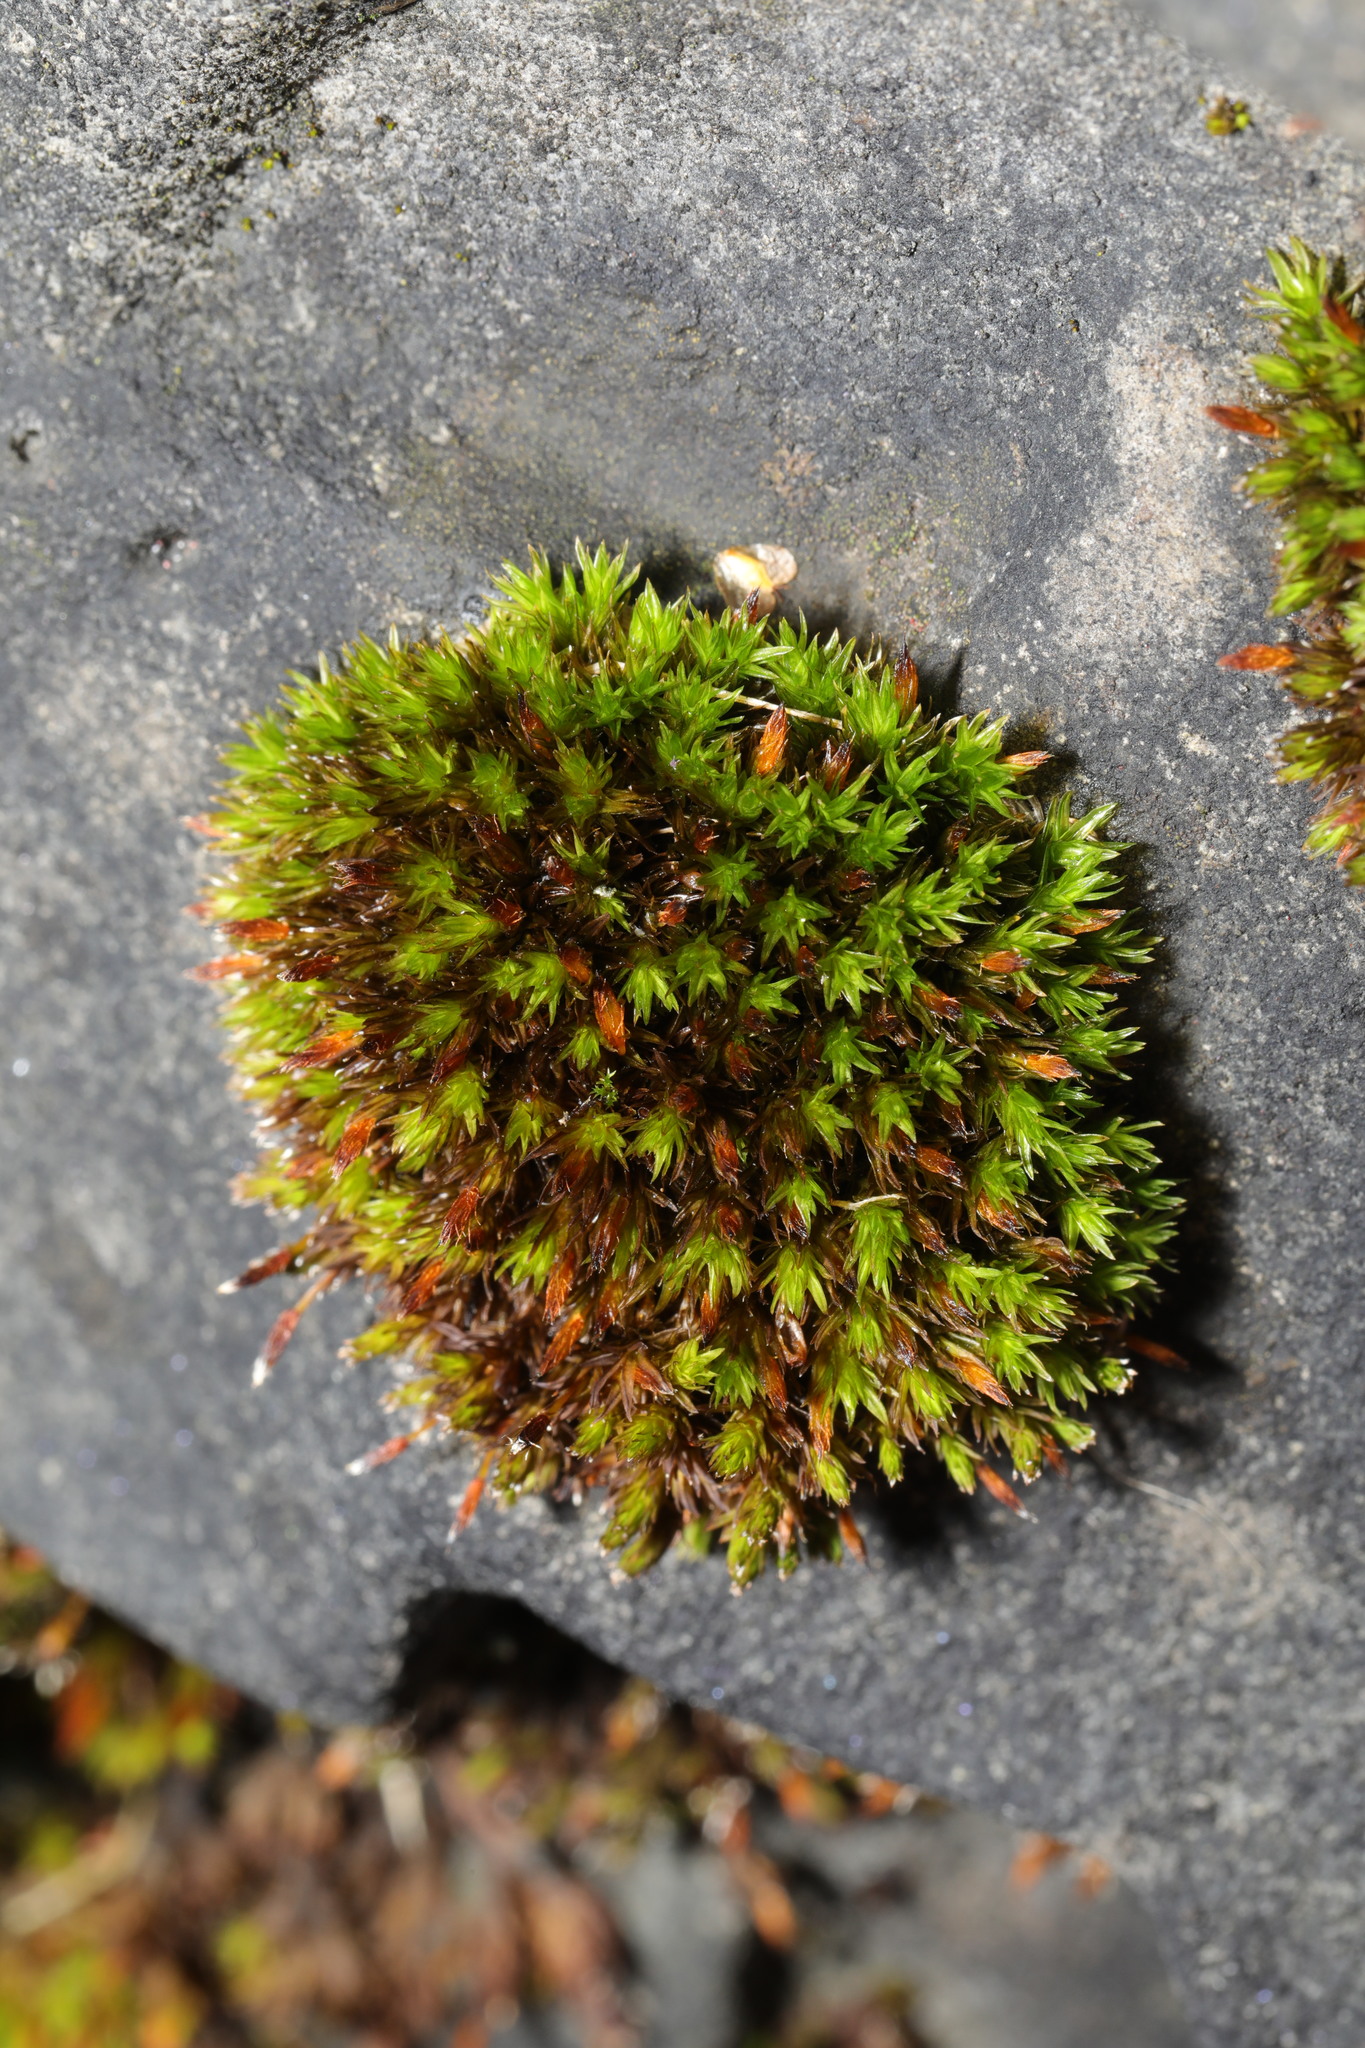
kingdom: Plantae
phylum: Bryophyta
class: Bryopsida
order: Orthotrichales
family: Orthotrichaceae
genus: Orthotrichum
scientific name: Orthotrichum anomalum
